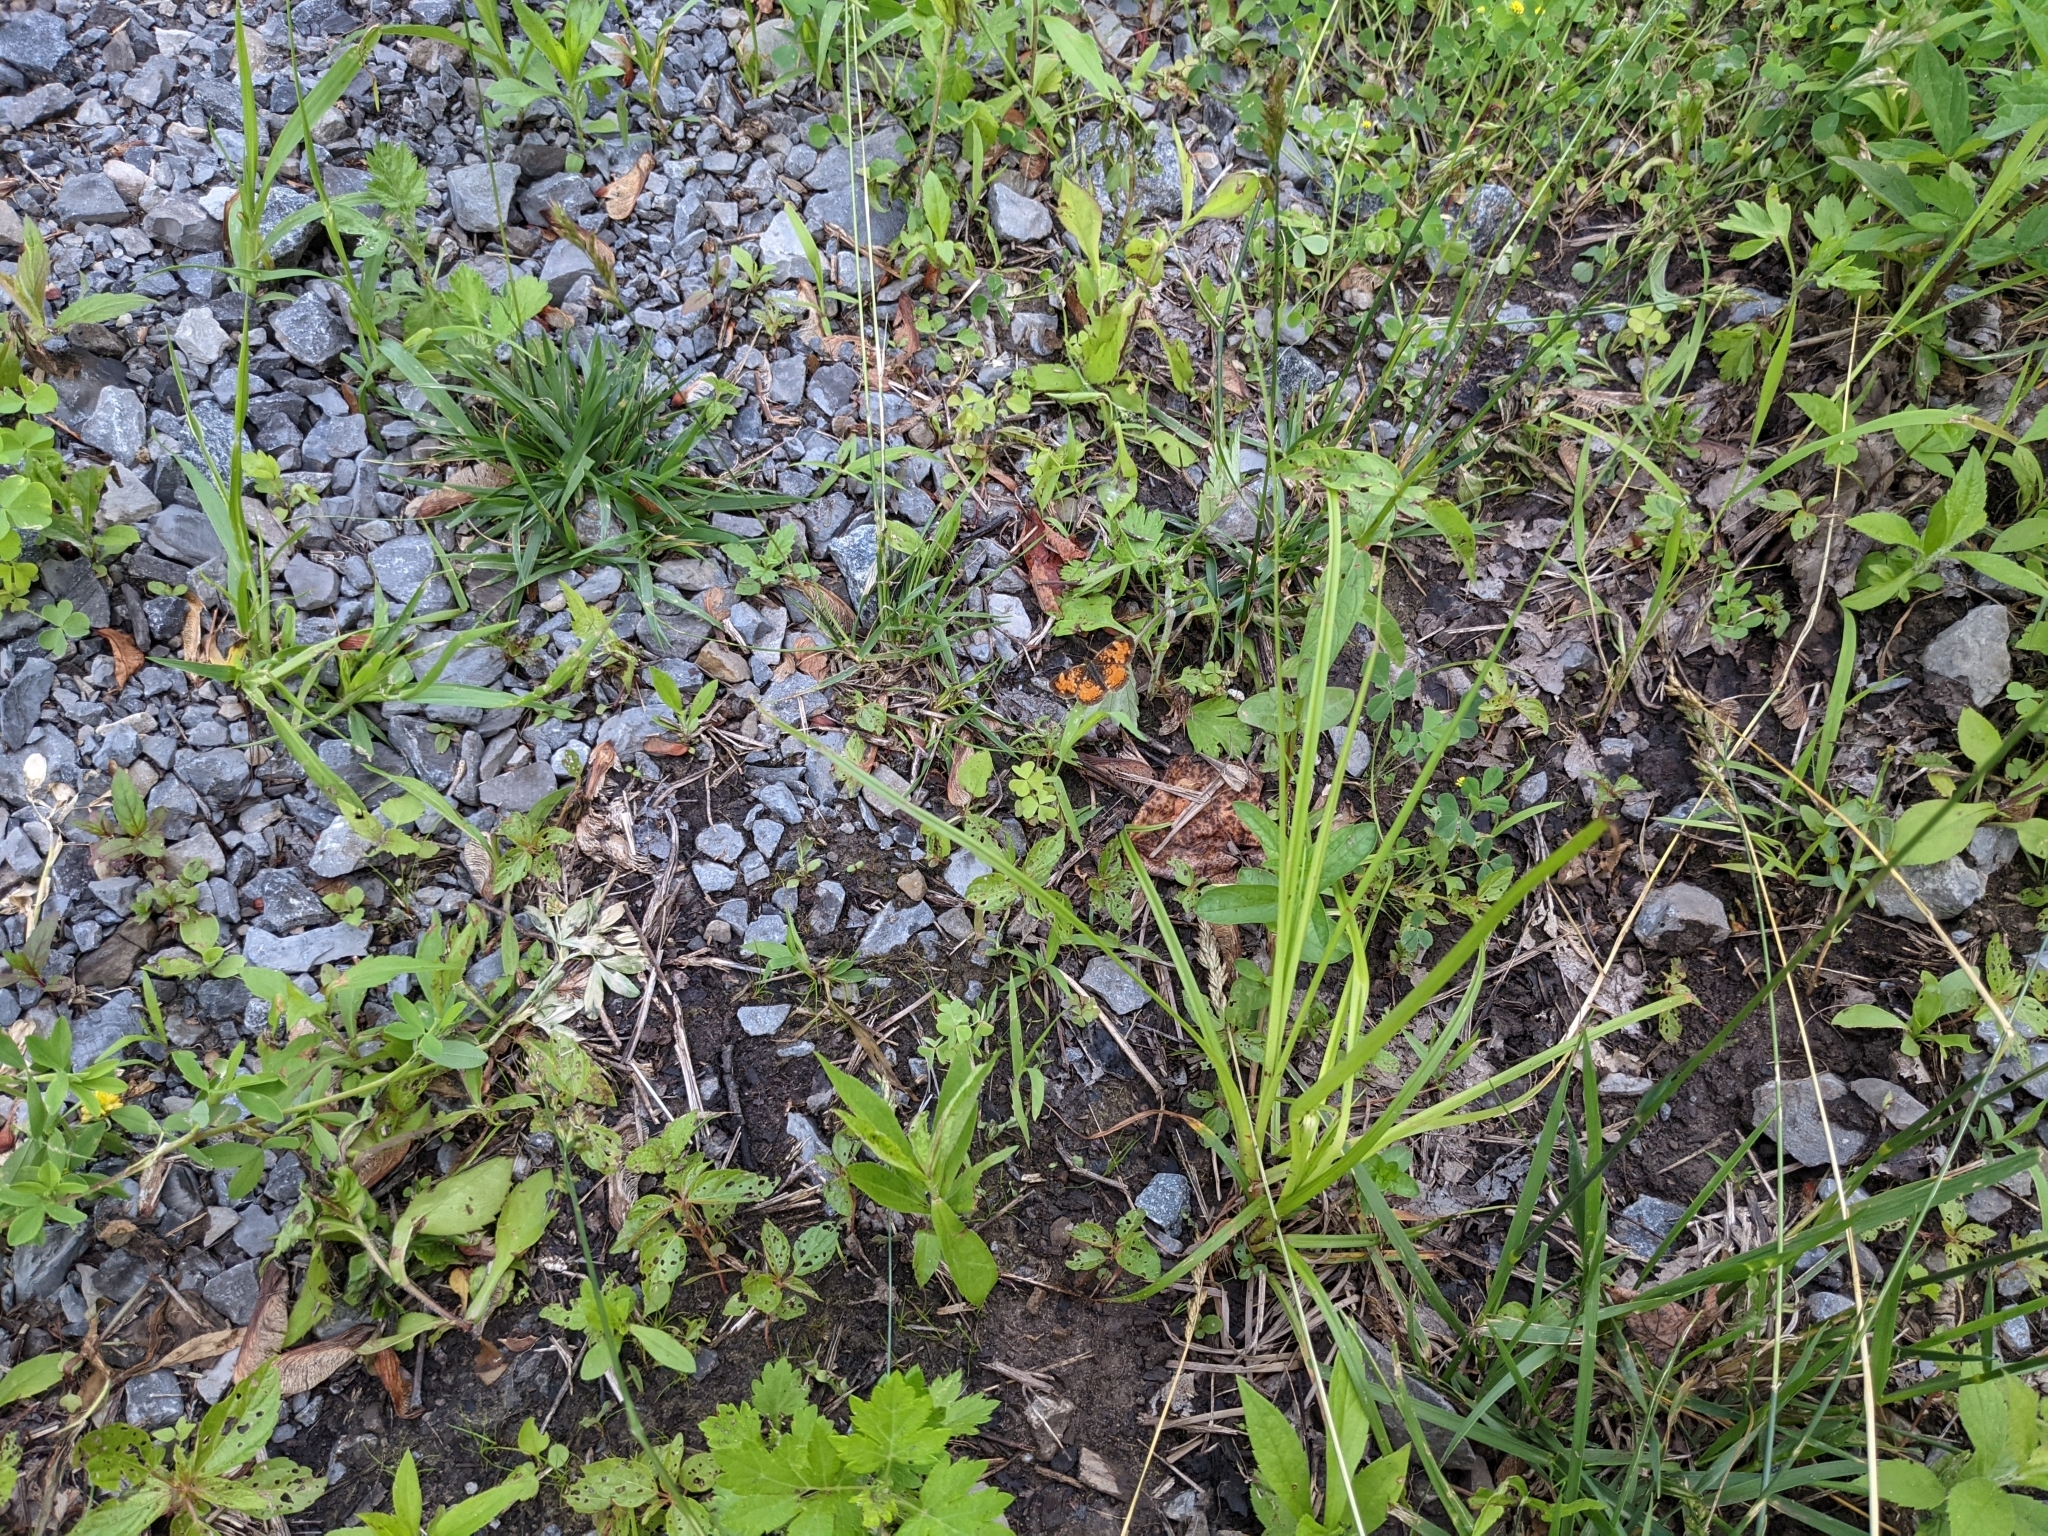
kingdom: Animalia
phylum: Arthropoda
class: Insecta
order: Lepidoptera
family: Nymphalidae
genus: Phyciodes
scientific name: Phyciodes tharos
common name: Pearl crescent
